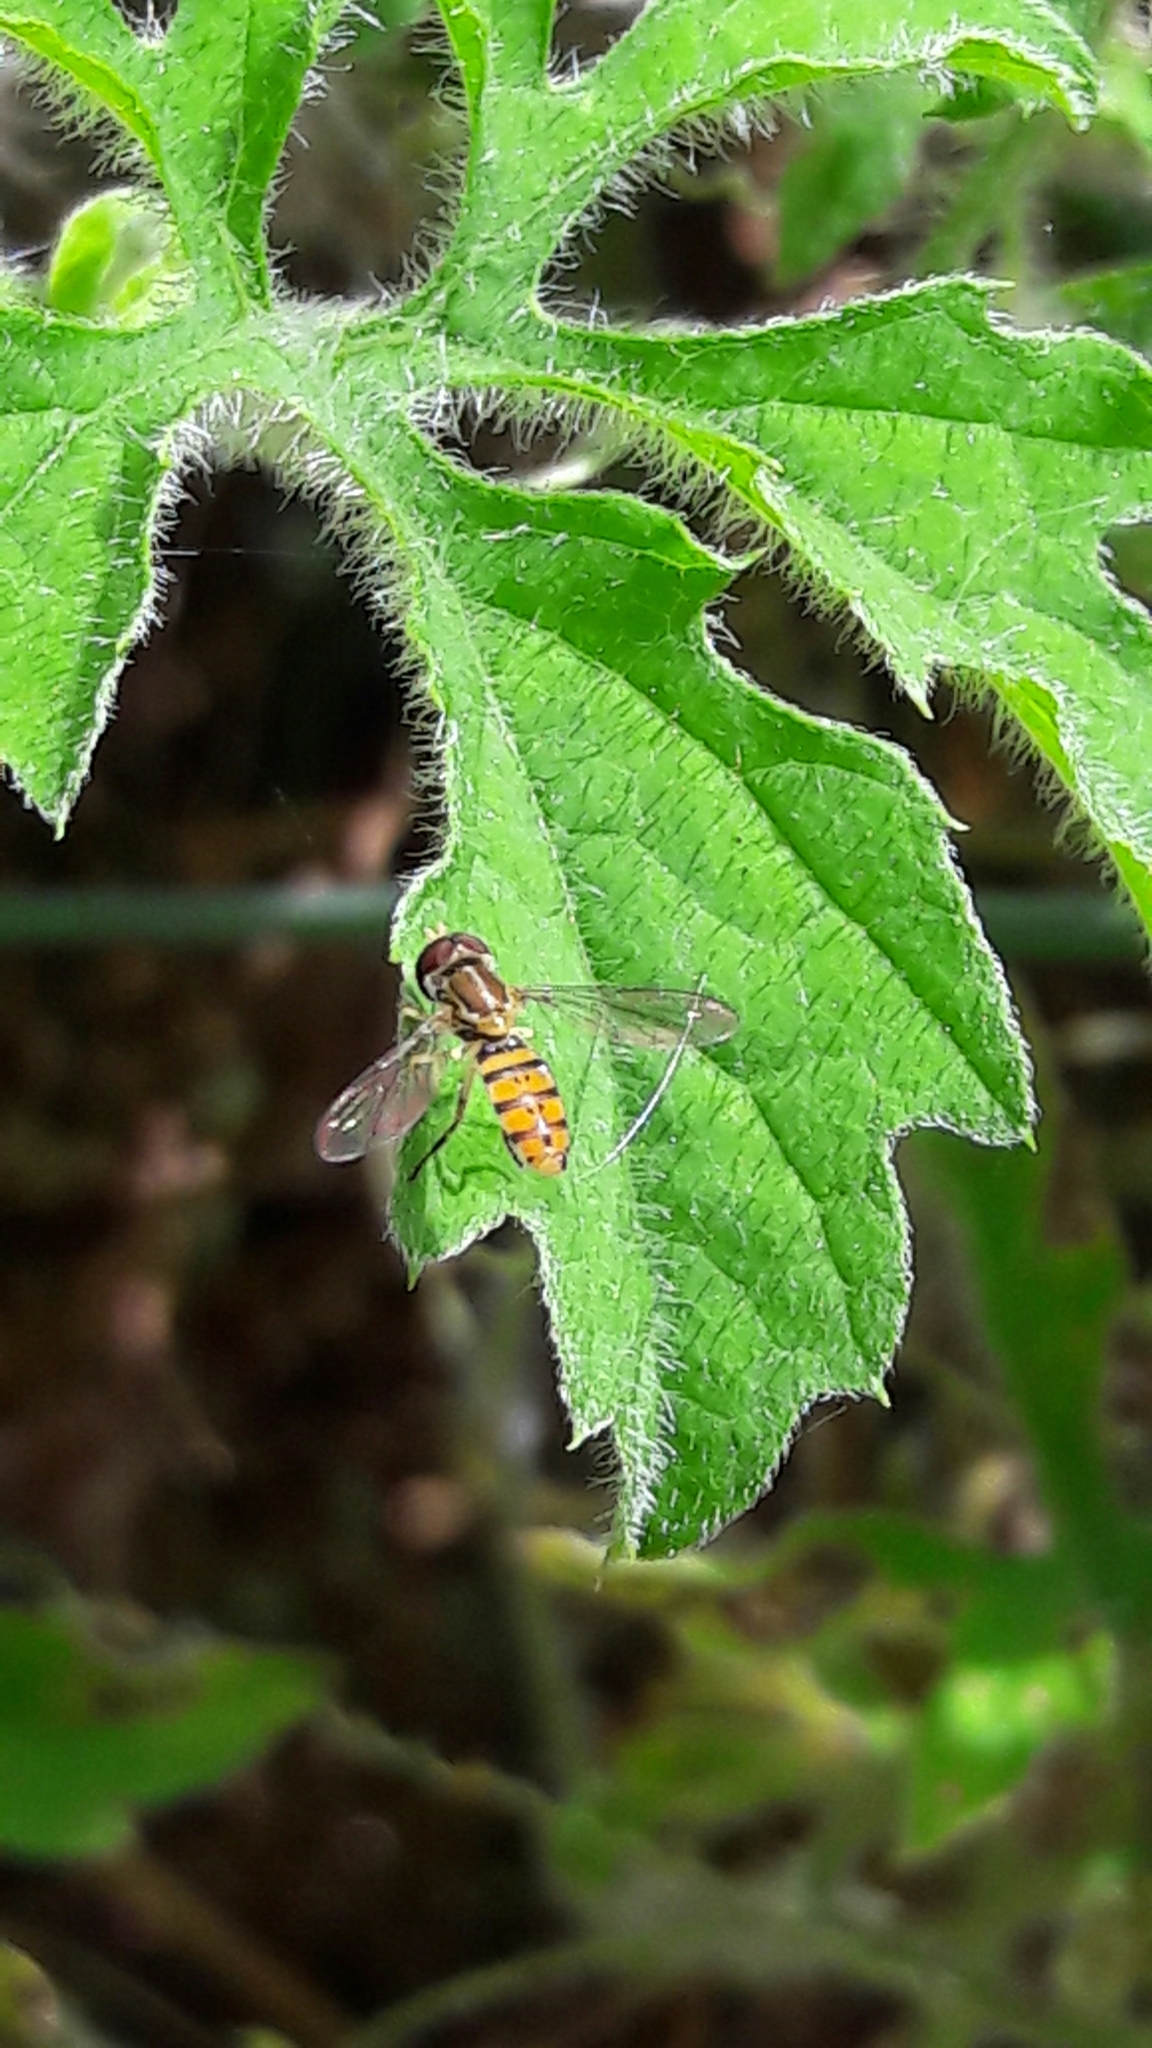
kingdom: Animalia
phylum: Arthropoda
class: Insecta
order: Diptera
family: Syrphidae
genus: Toxomerus
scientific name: Toxomerus
